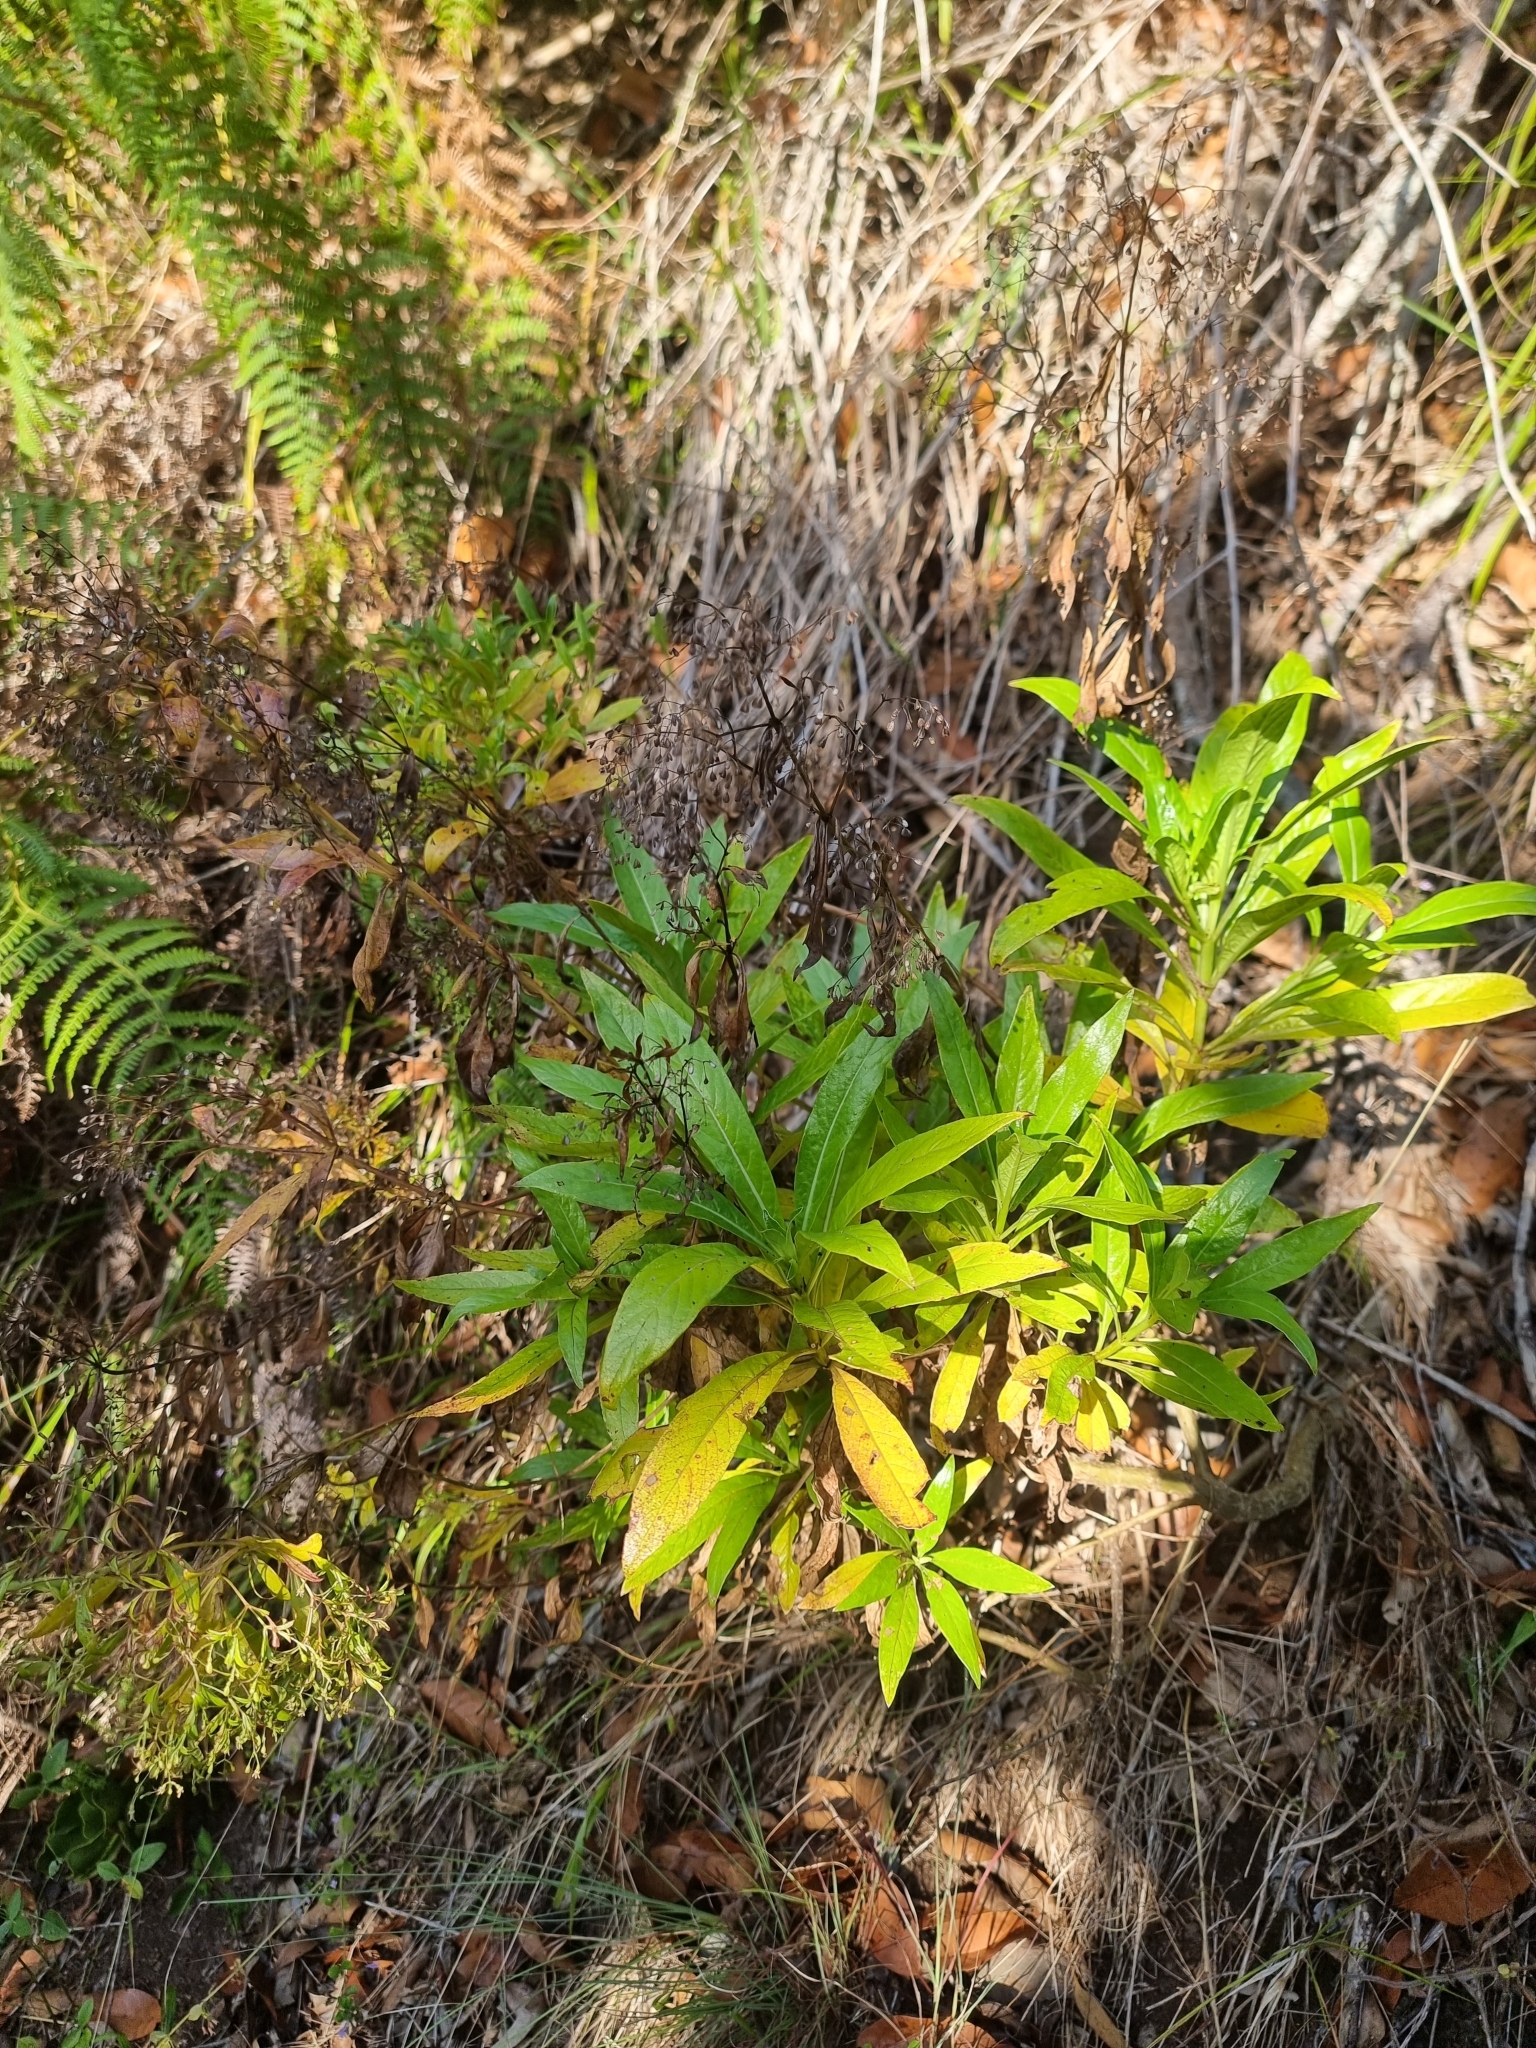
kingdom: Plantae
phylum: Tracheophyta
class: Magnoliopsida
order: Gentianales
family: Rubiaceae
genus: Phyllis
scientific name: Phyllis nobla
